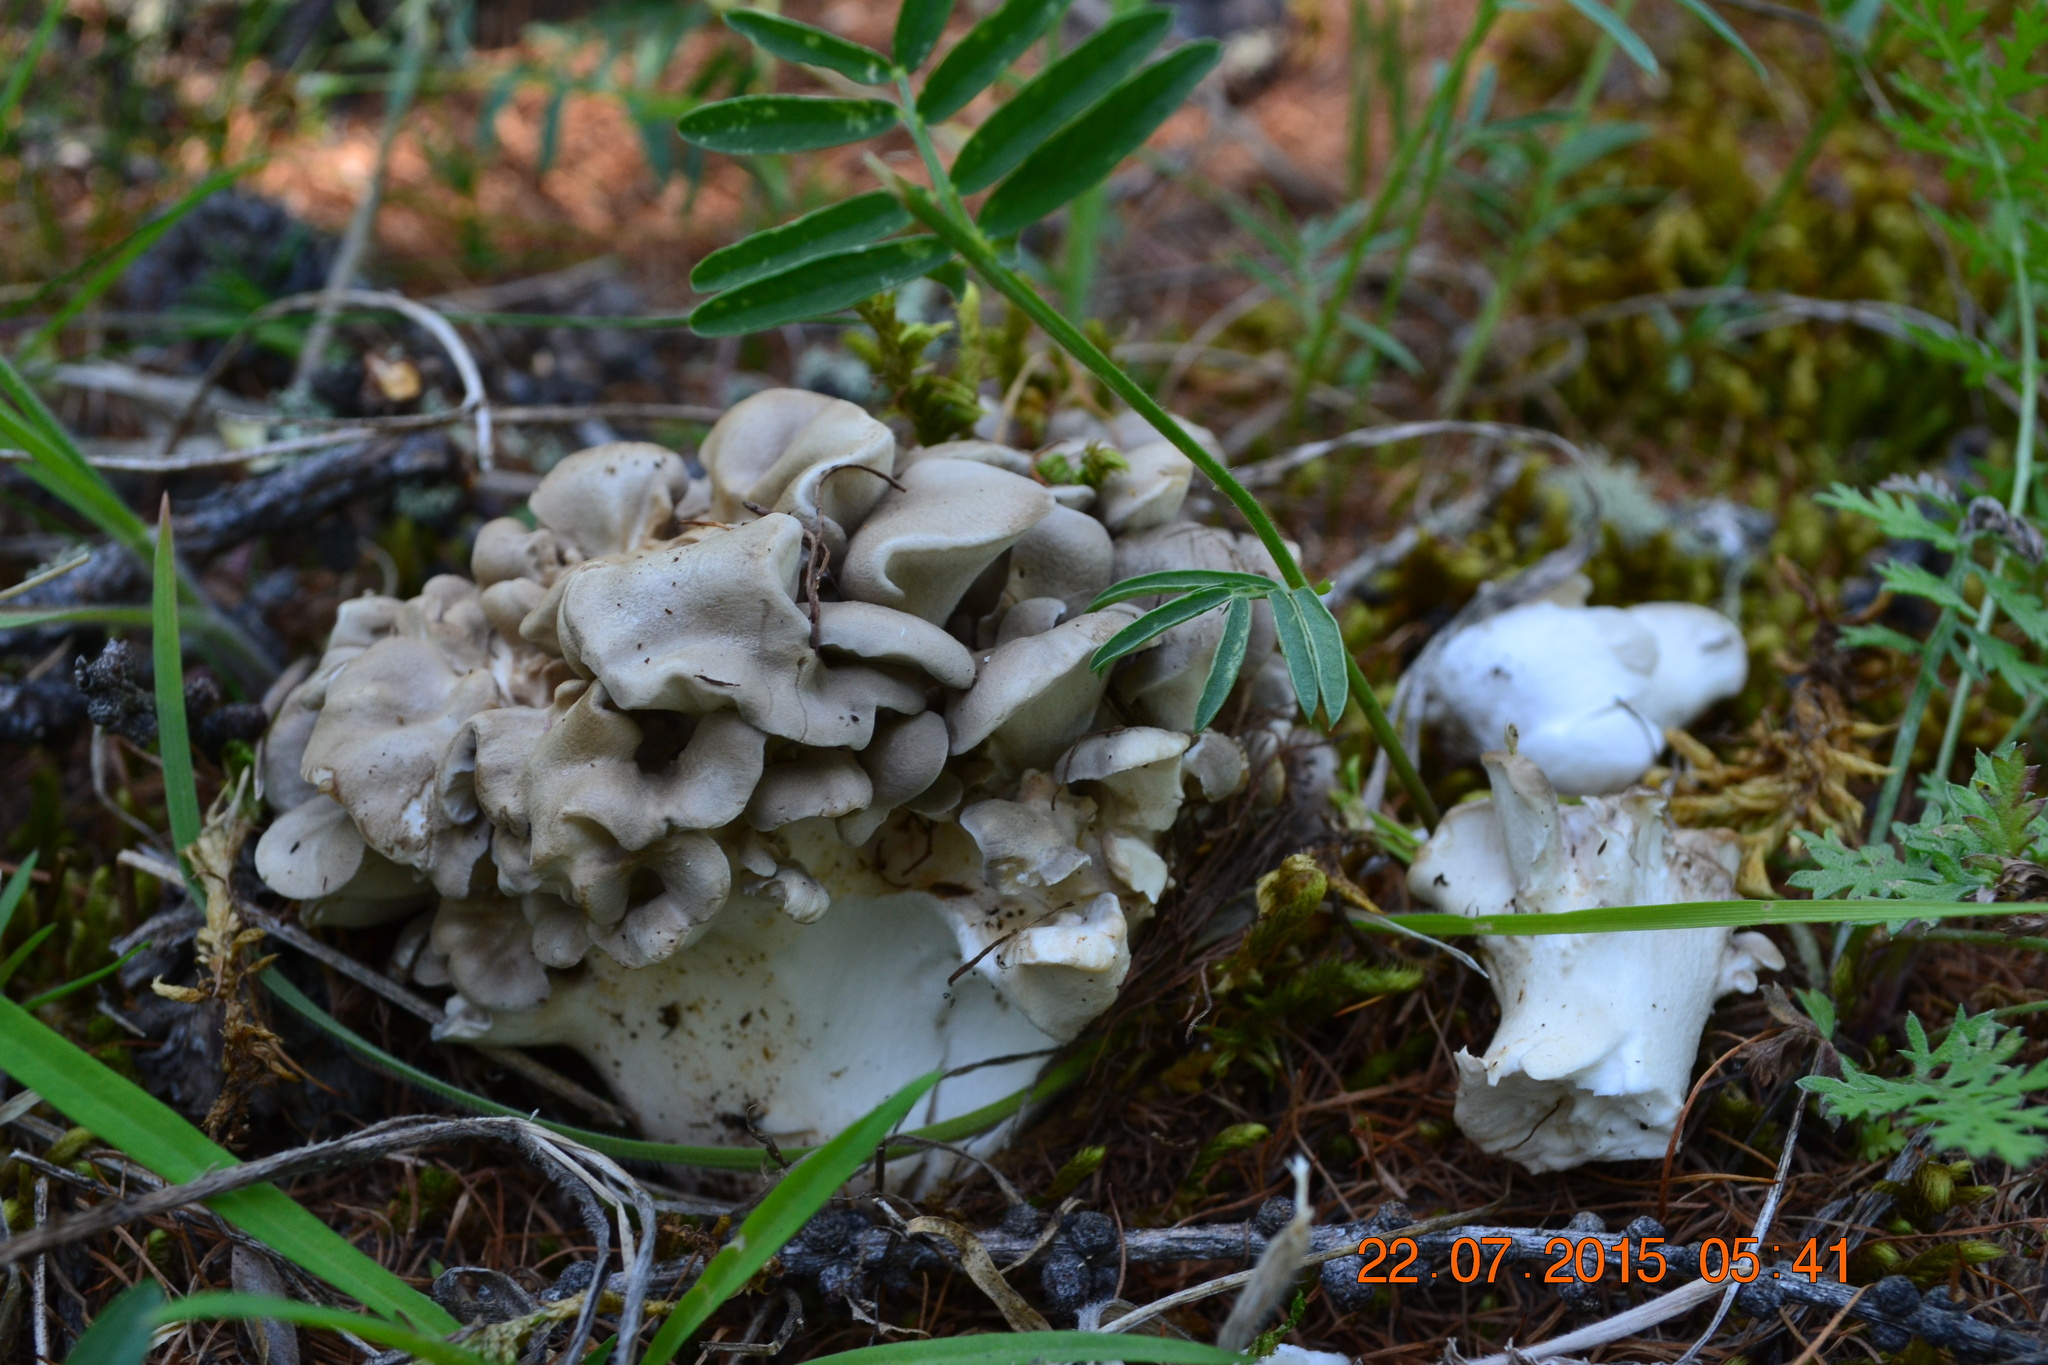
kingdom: Fungi
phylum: Basidiomycota
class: Agaricomycetes
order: Polyporales
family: Grifolaceae
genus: Grifola
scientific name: Grifola frondosa
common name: Hen of the woods
